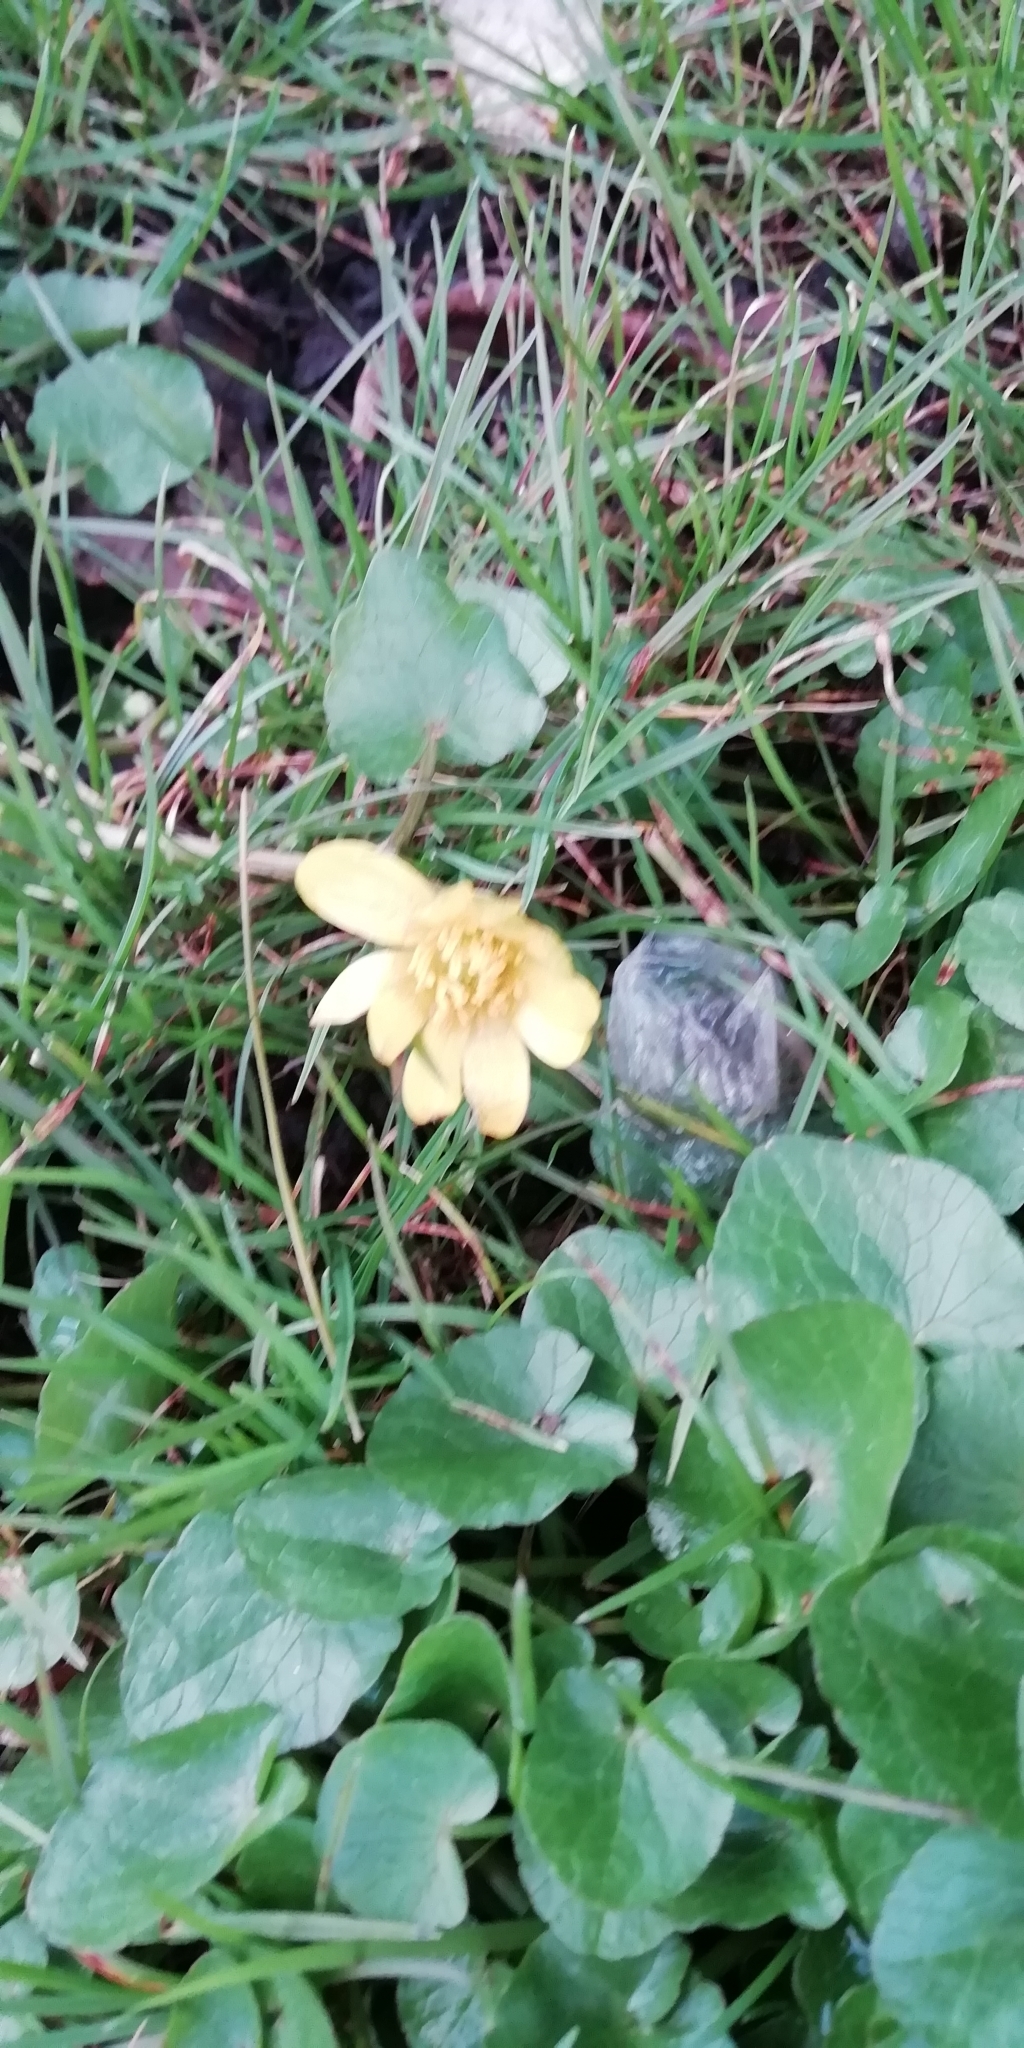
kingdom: Plantae
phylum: Tracheophyta
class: Magnoliopsida
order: Ranunculales
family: Ranunculaceae
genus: Ficaria
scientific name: Ficaria verna
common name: Lesser celandine
